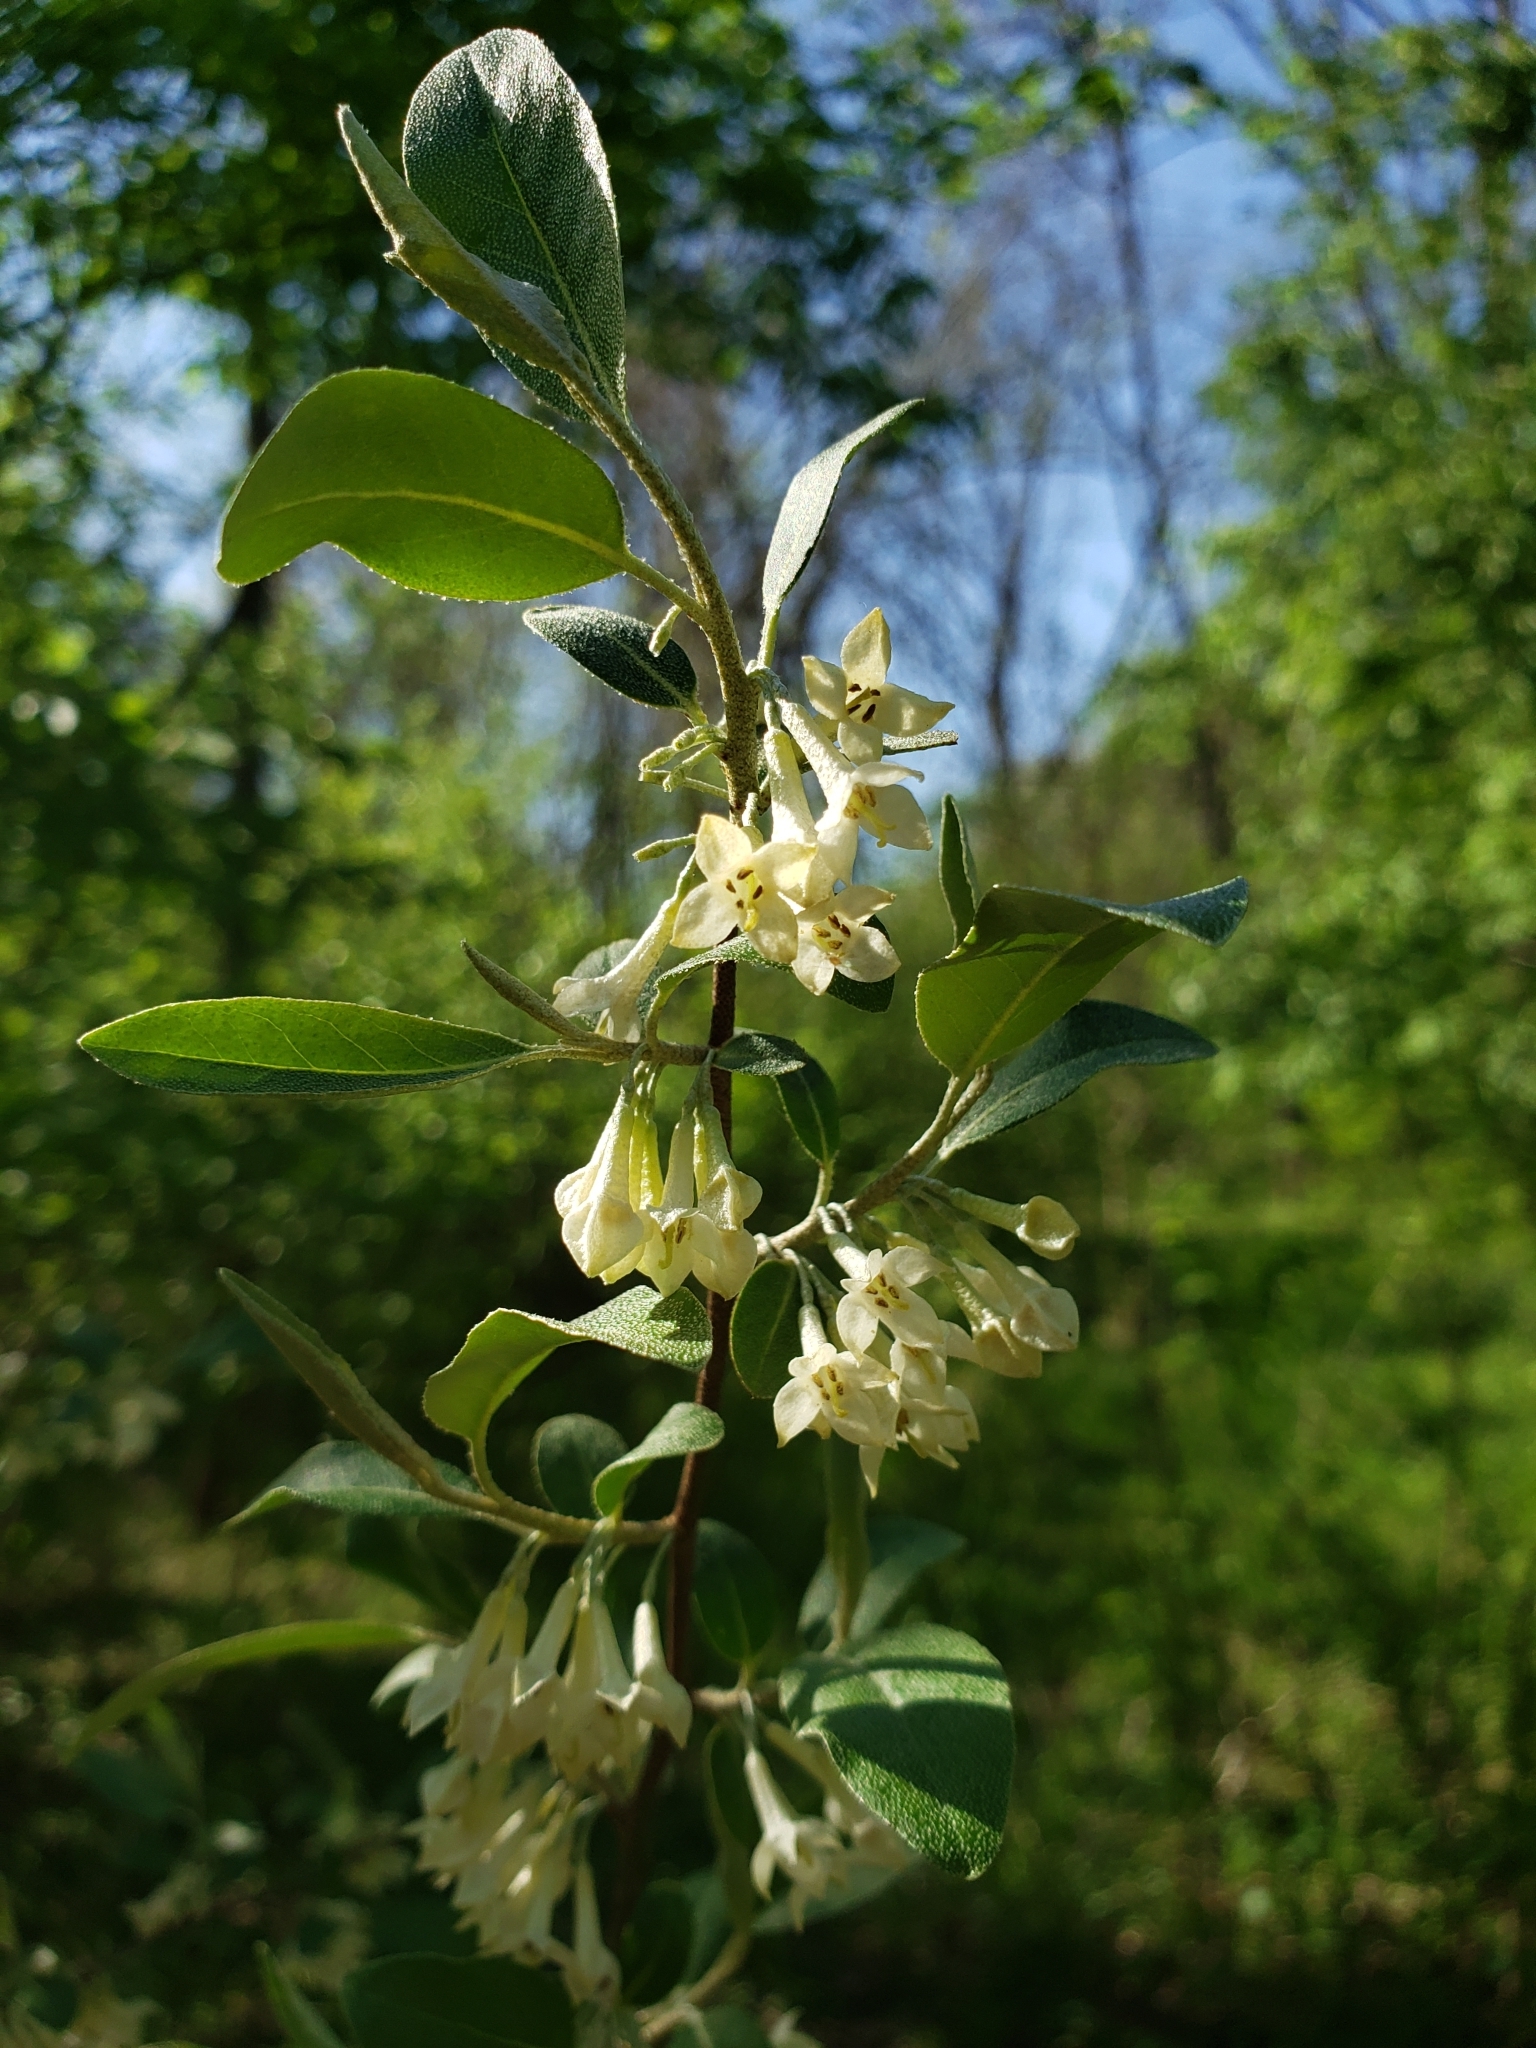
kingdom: Plantae
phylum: Tracheophyta
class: Magnoliopsida
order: Rosales
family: Elaeagnaceae
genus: Elaeagnus
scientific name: Elaeagnus umbellata
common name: Autumn olive
